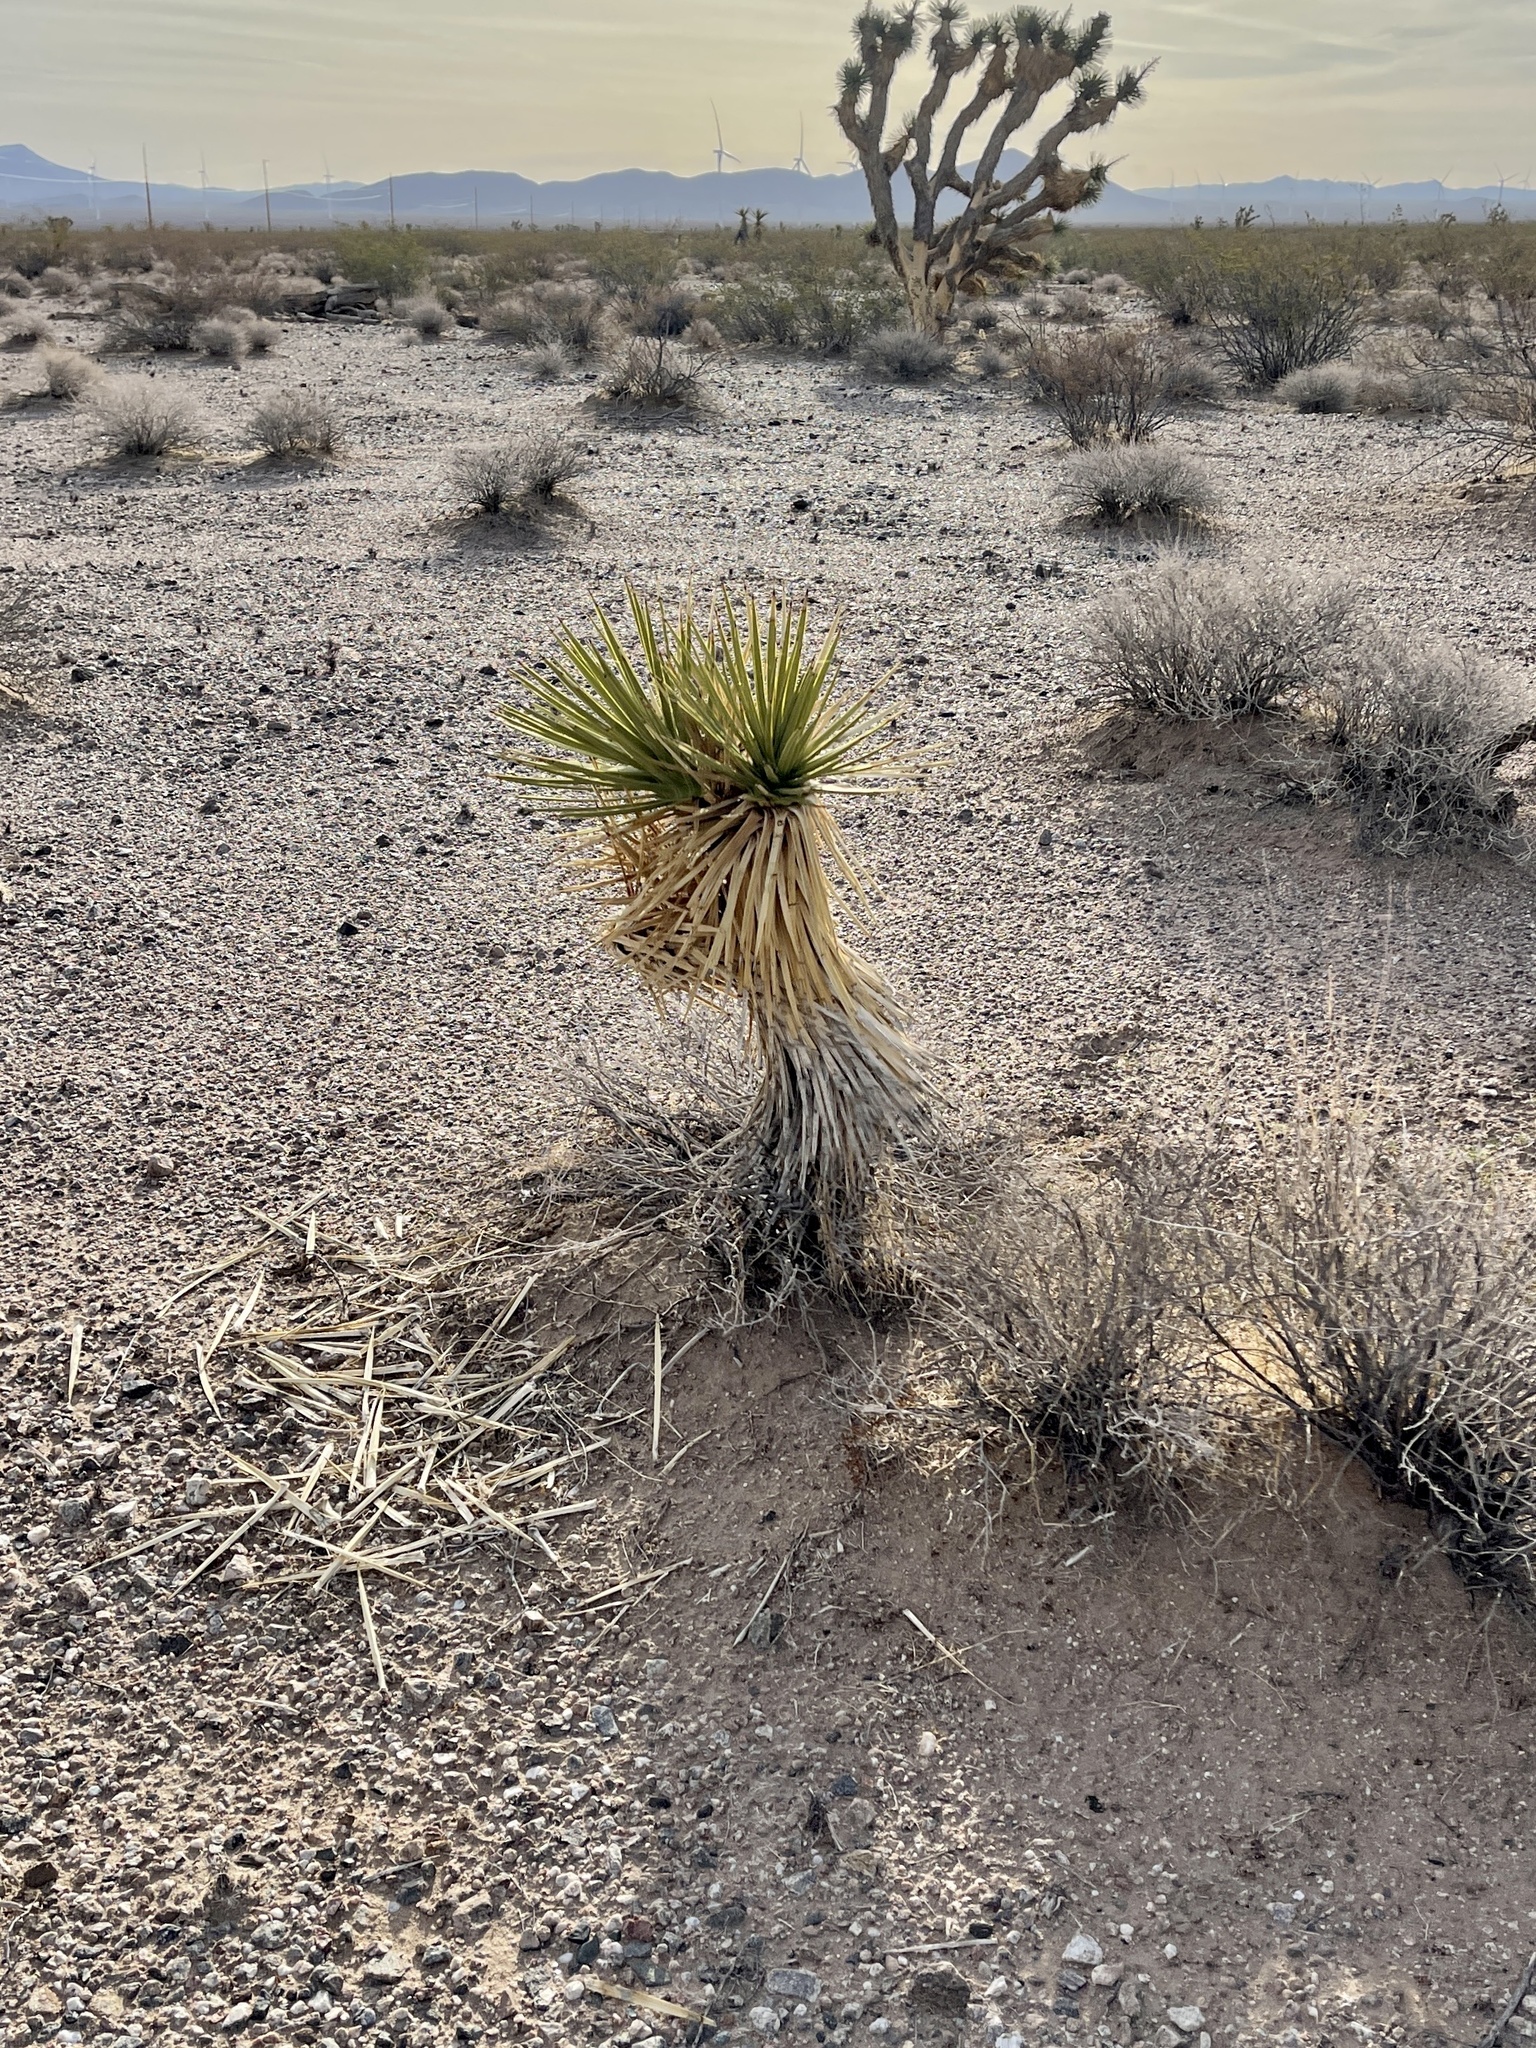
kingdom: Plantae
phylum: Tracheophyta
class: Liliopsida
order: Asparagales
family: Asparagaceae
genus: Yucca
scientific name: Yucca brevifolia
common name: Joshua tree
